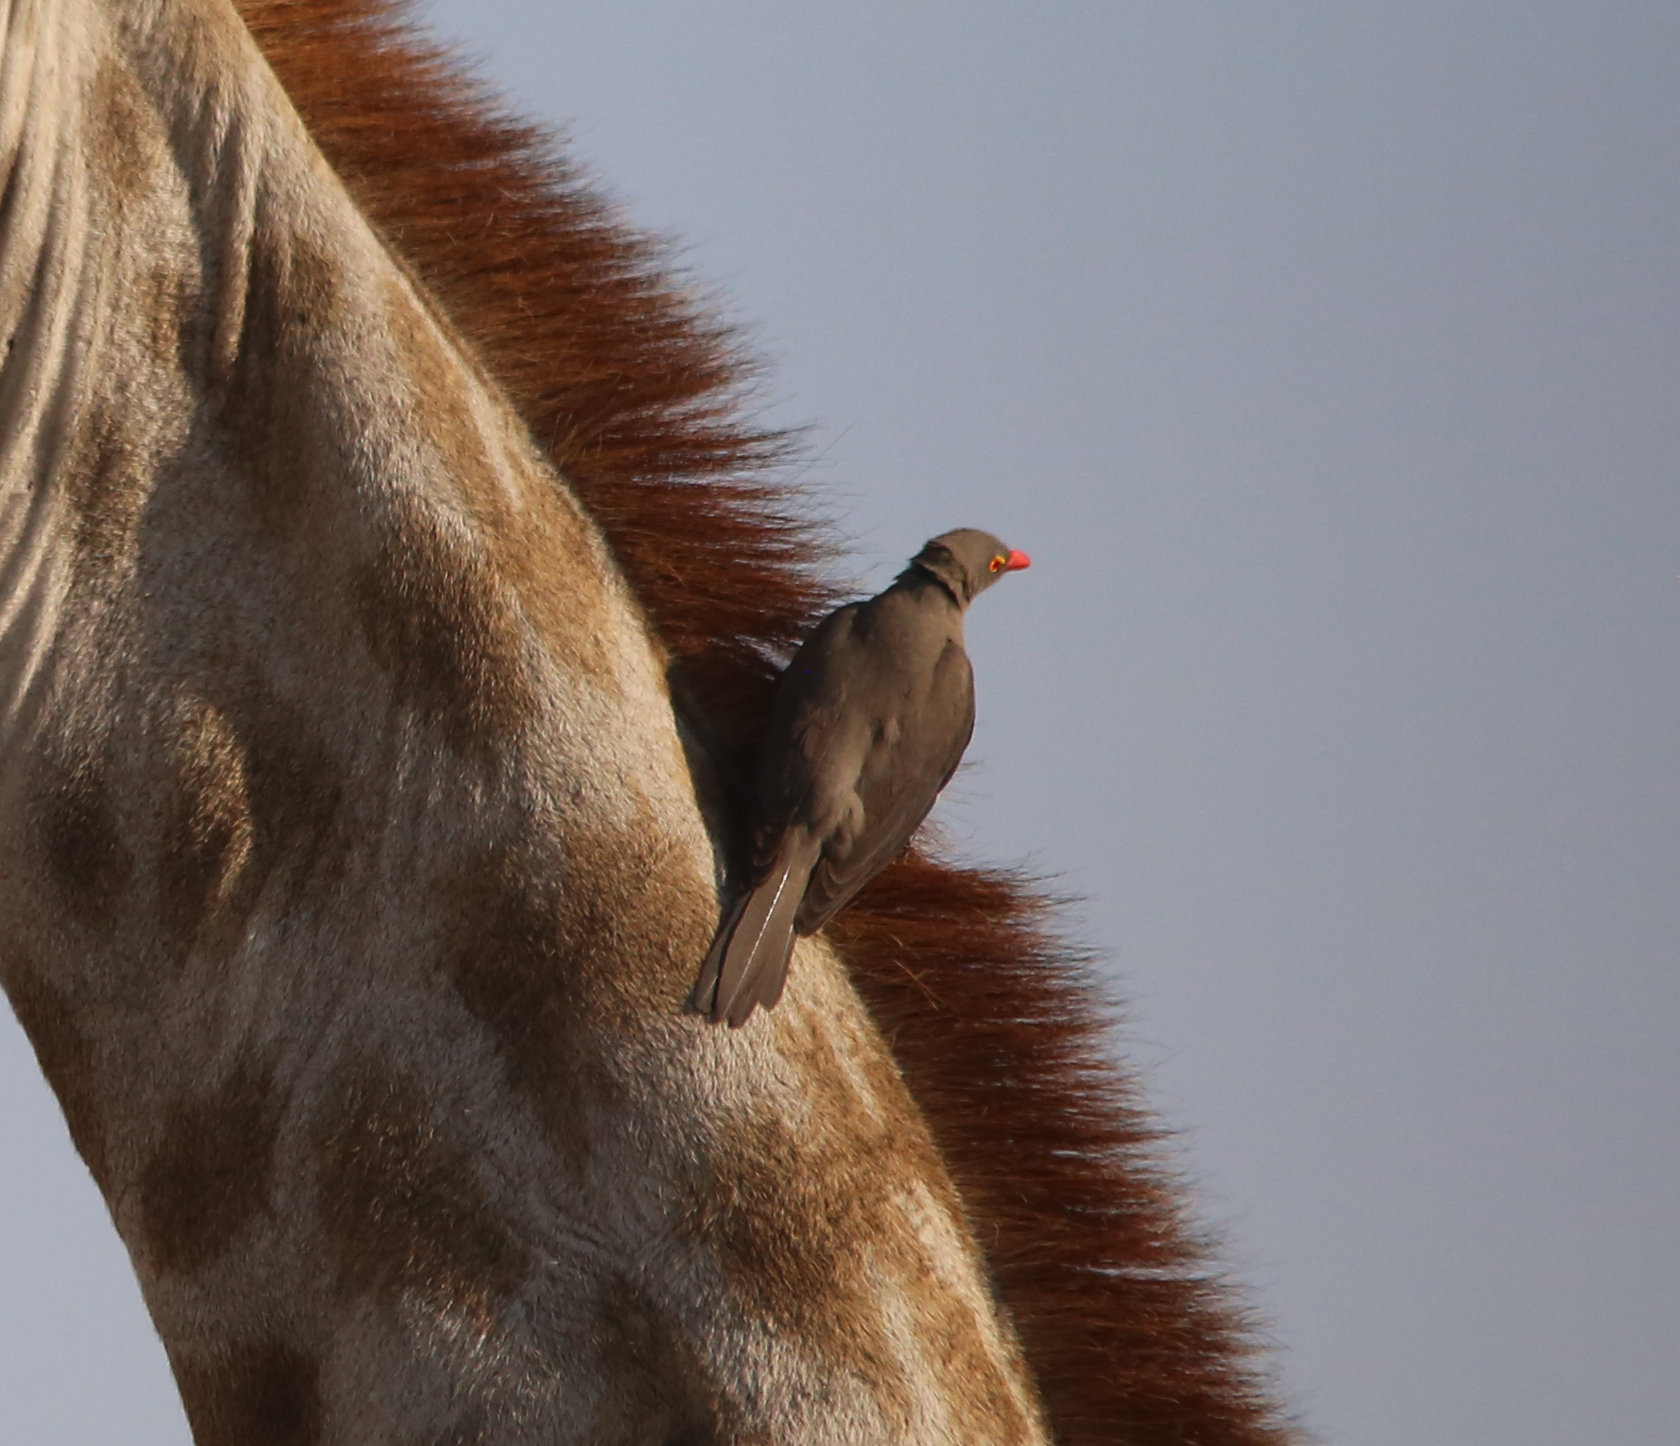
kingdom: Animalia
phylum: Chordata
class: Aves
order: Passeriformes
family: Buphagidae
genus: Buphagus
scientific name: Buphagus erythrorhynchus
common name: Red-billed oxpecker
